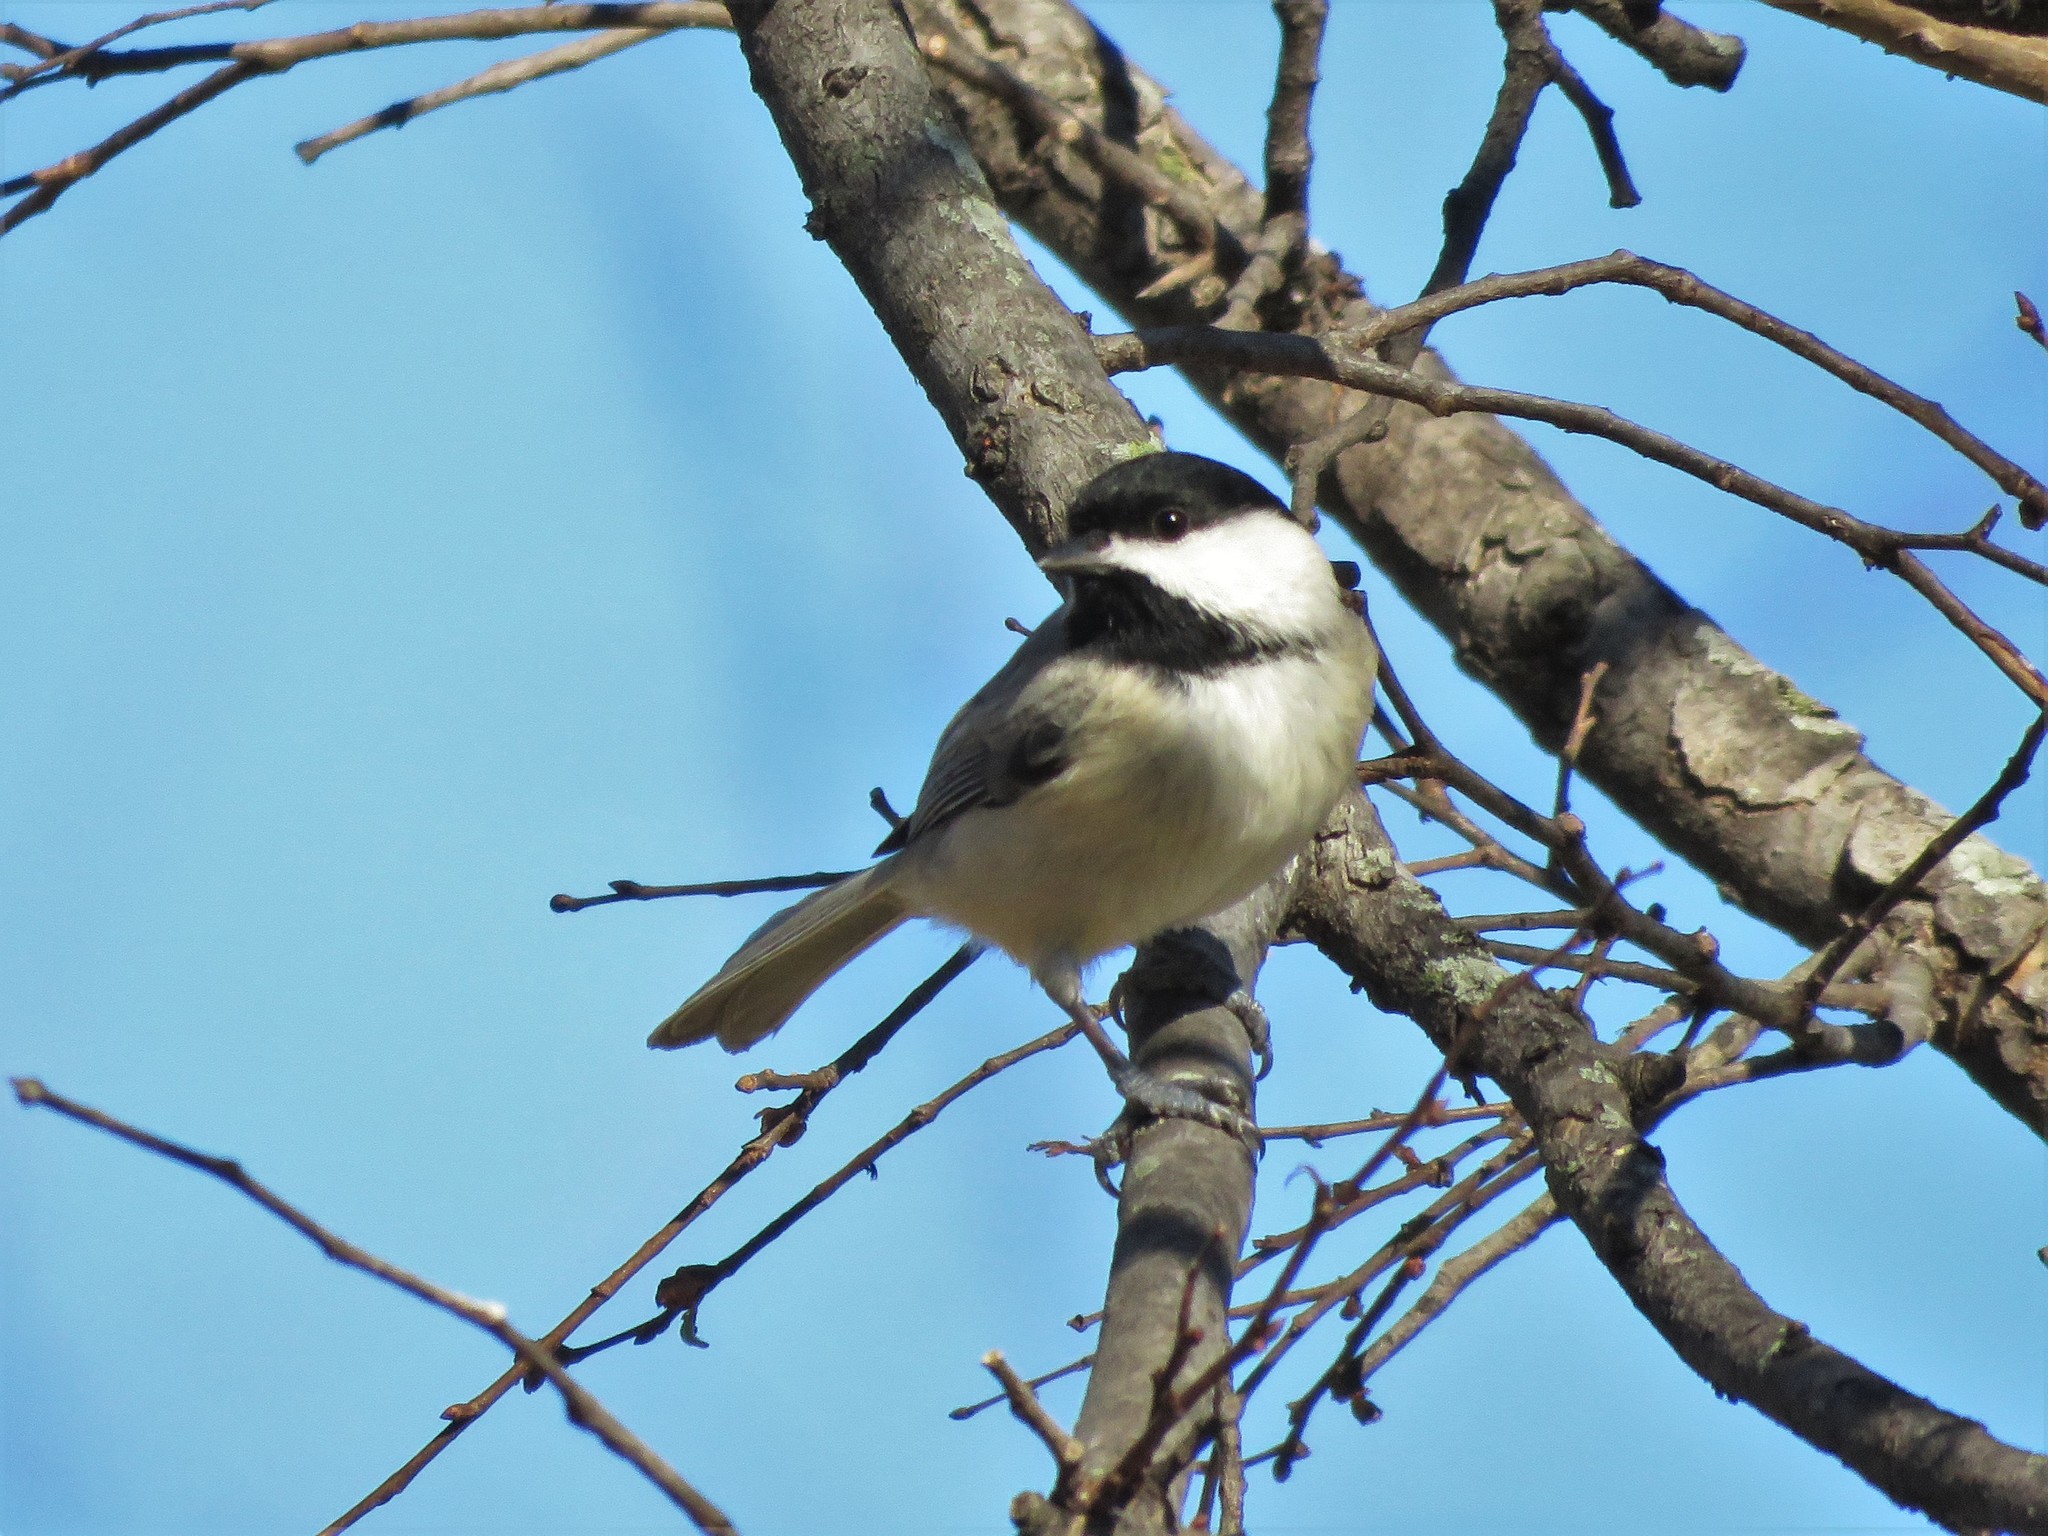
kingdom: Animalia
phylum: Chordata
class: Aves
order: Passeriformes
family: Paridae
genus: Poecile
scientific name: Poecile carolinensis
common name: Carolina chickadee
